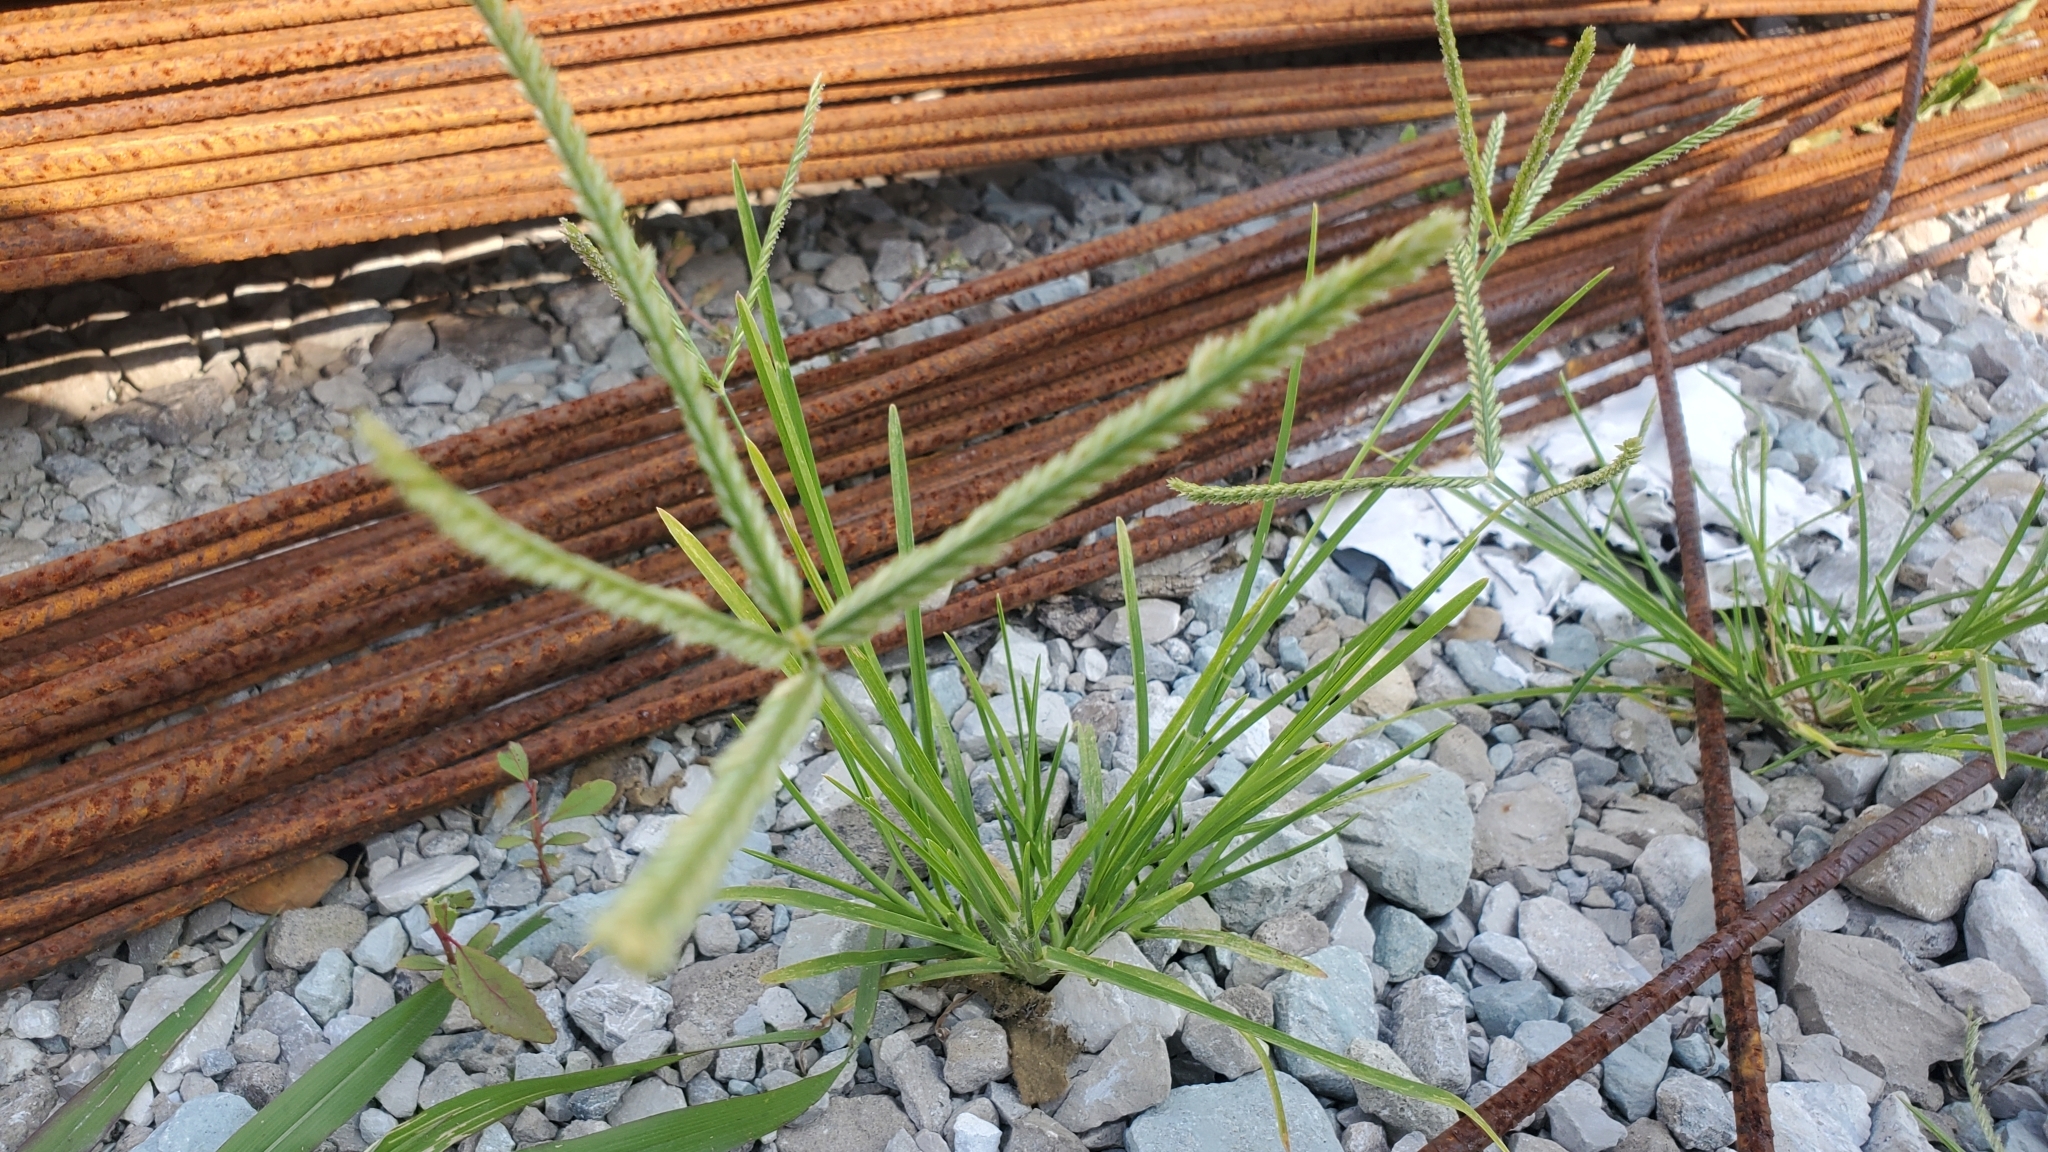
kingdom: Plantae
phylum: Tracheophyta
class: Liliopsida
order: Poales
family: Poaceae
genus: Eleusine
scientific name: Eleusine indica
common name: Yard-grass
